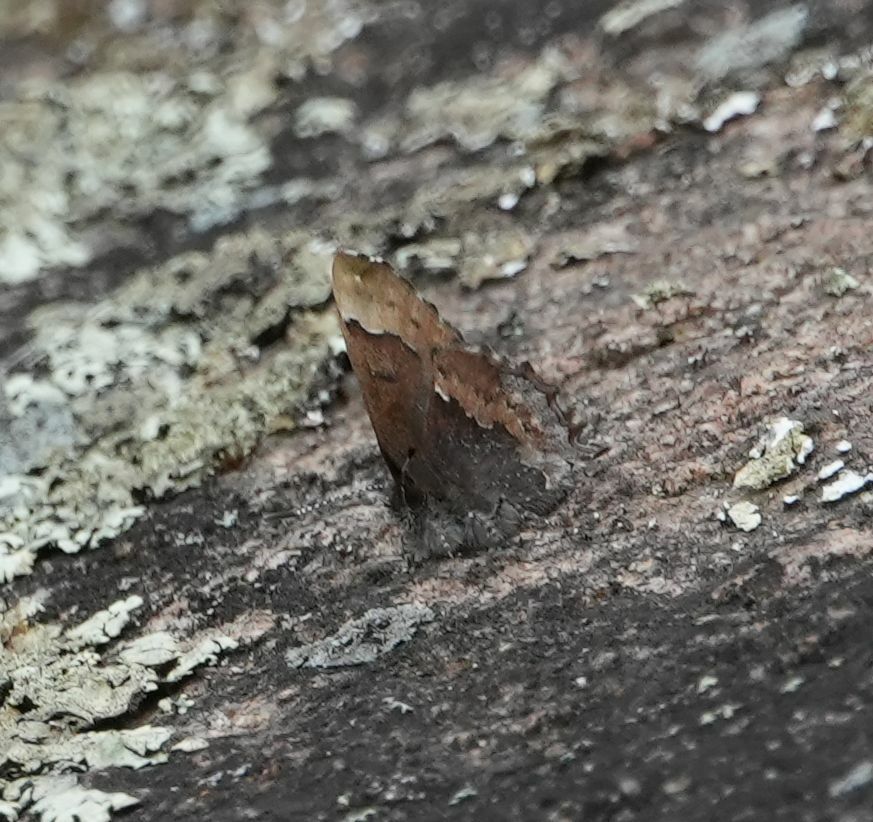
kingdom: Animalia
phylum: Arthropoda
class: Insecta
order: Lepidoptera
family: Lycaenidae
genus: Incisalia
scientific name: Incisalia henrici
